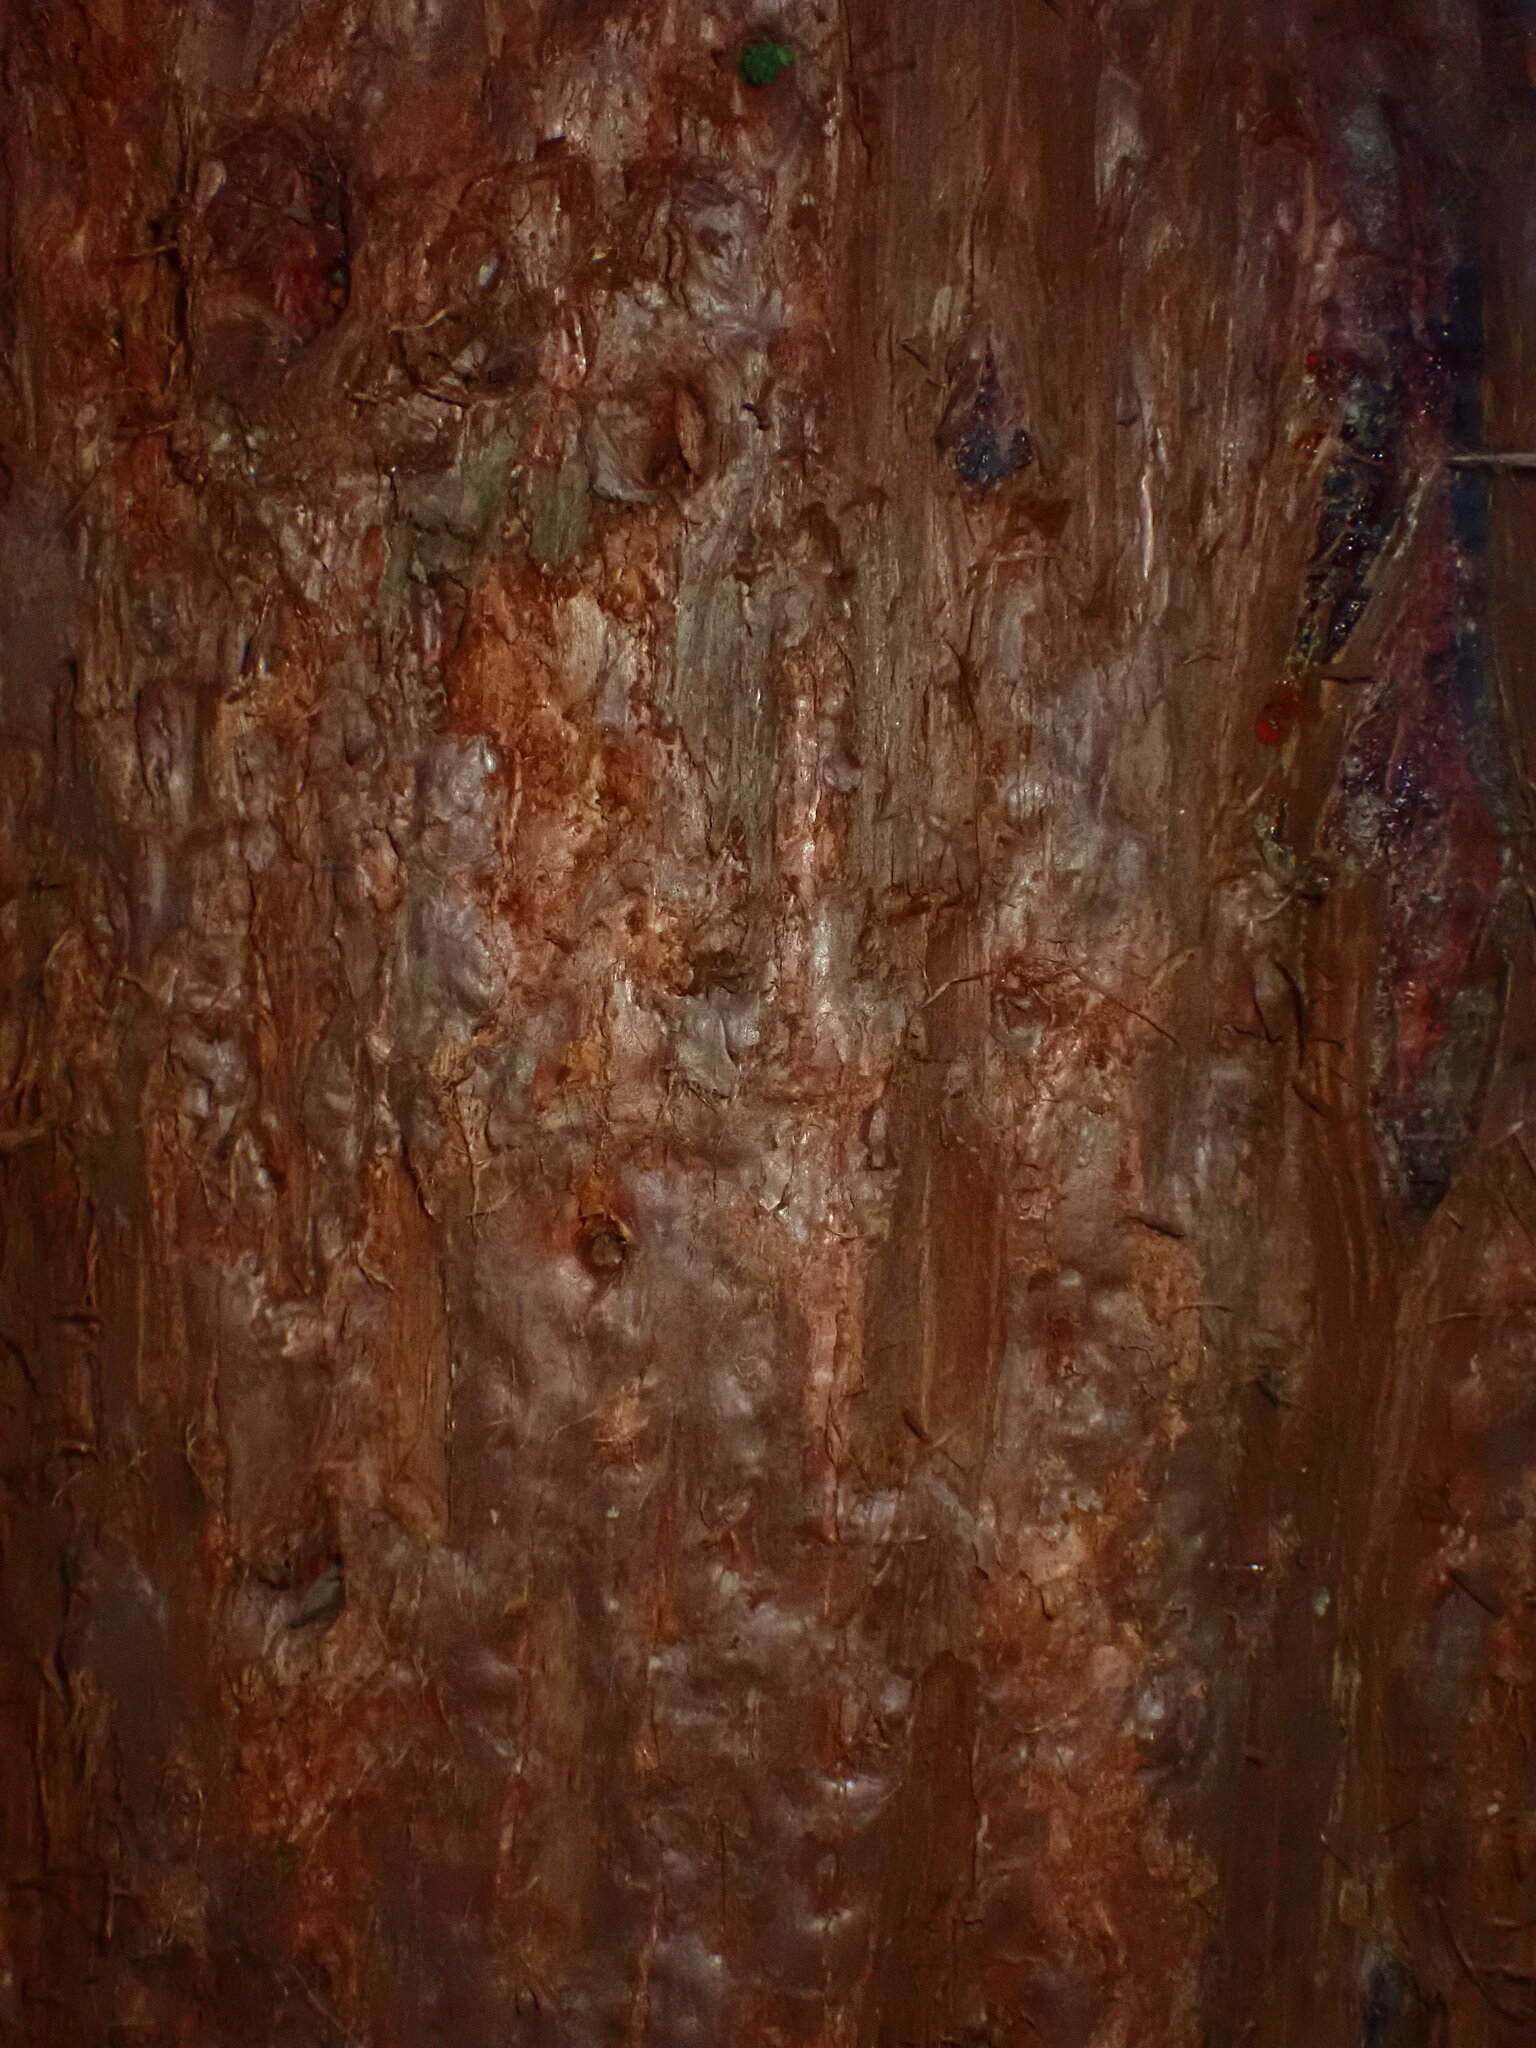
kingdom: Plantae
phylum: Tracheophyta
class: Pinopsida
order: Pinales
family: Cupressaceae
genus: Sequoiadendron
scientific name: Sequoiadendron giganteum
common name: Wellingtonia
